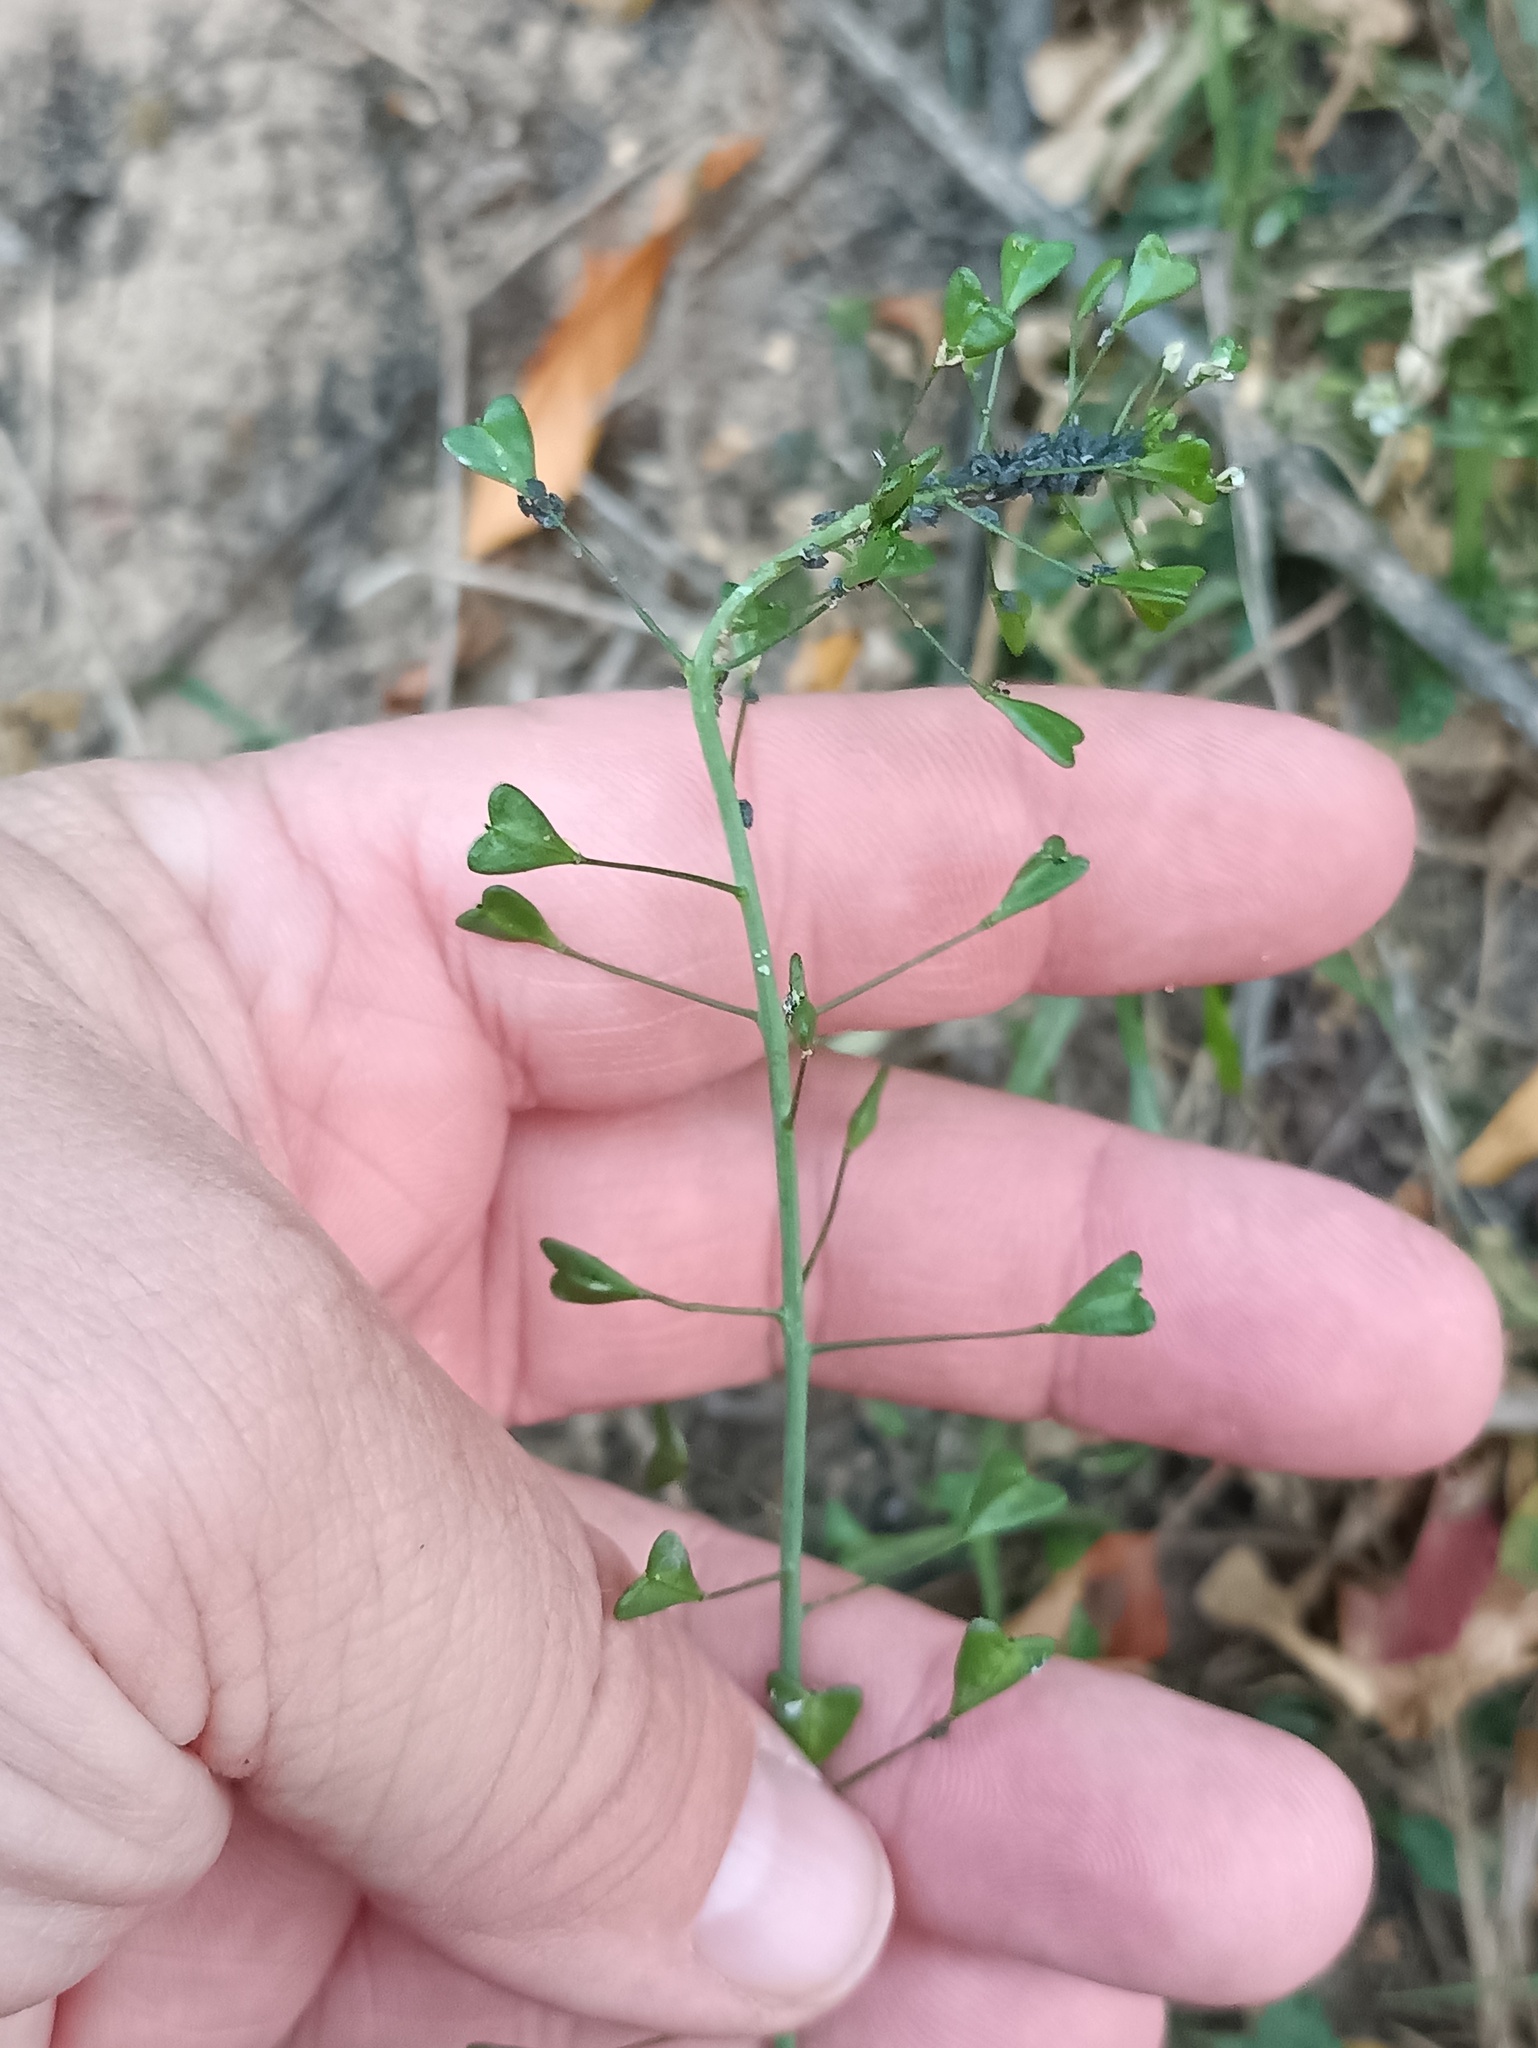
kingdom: Plantae
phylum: Tracheophyta
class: Magnoliopsida
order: Brassicales
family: Brassicaceae
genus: Capsella
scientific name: Capsella bursa-pastoris
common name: Shepherd's purse
